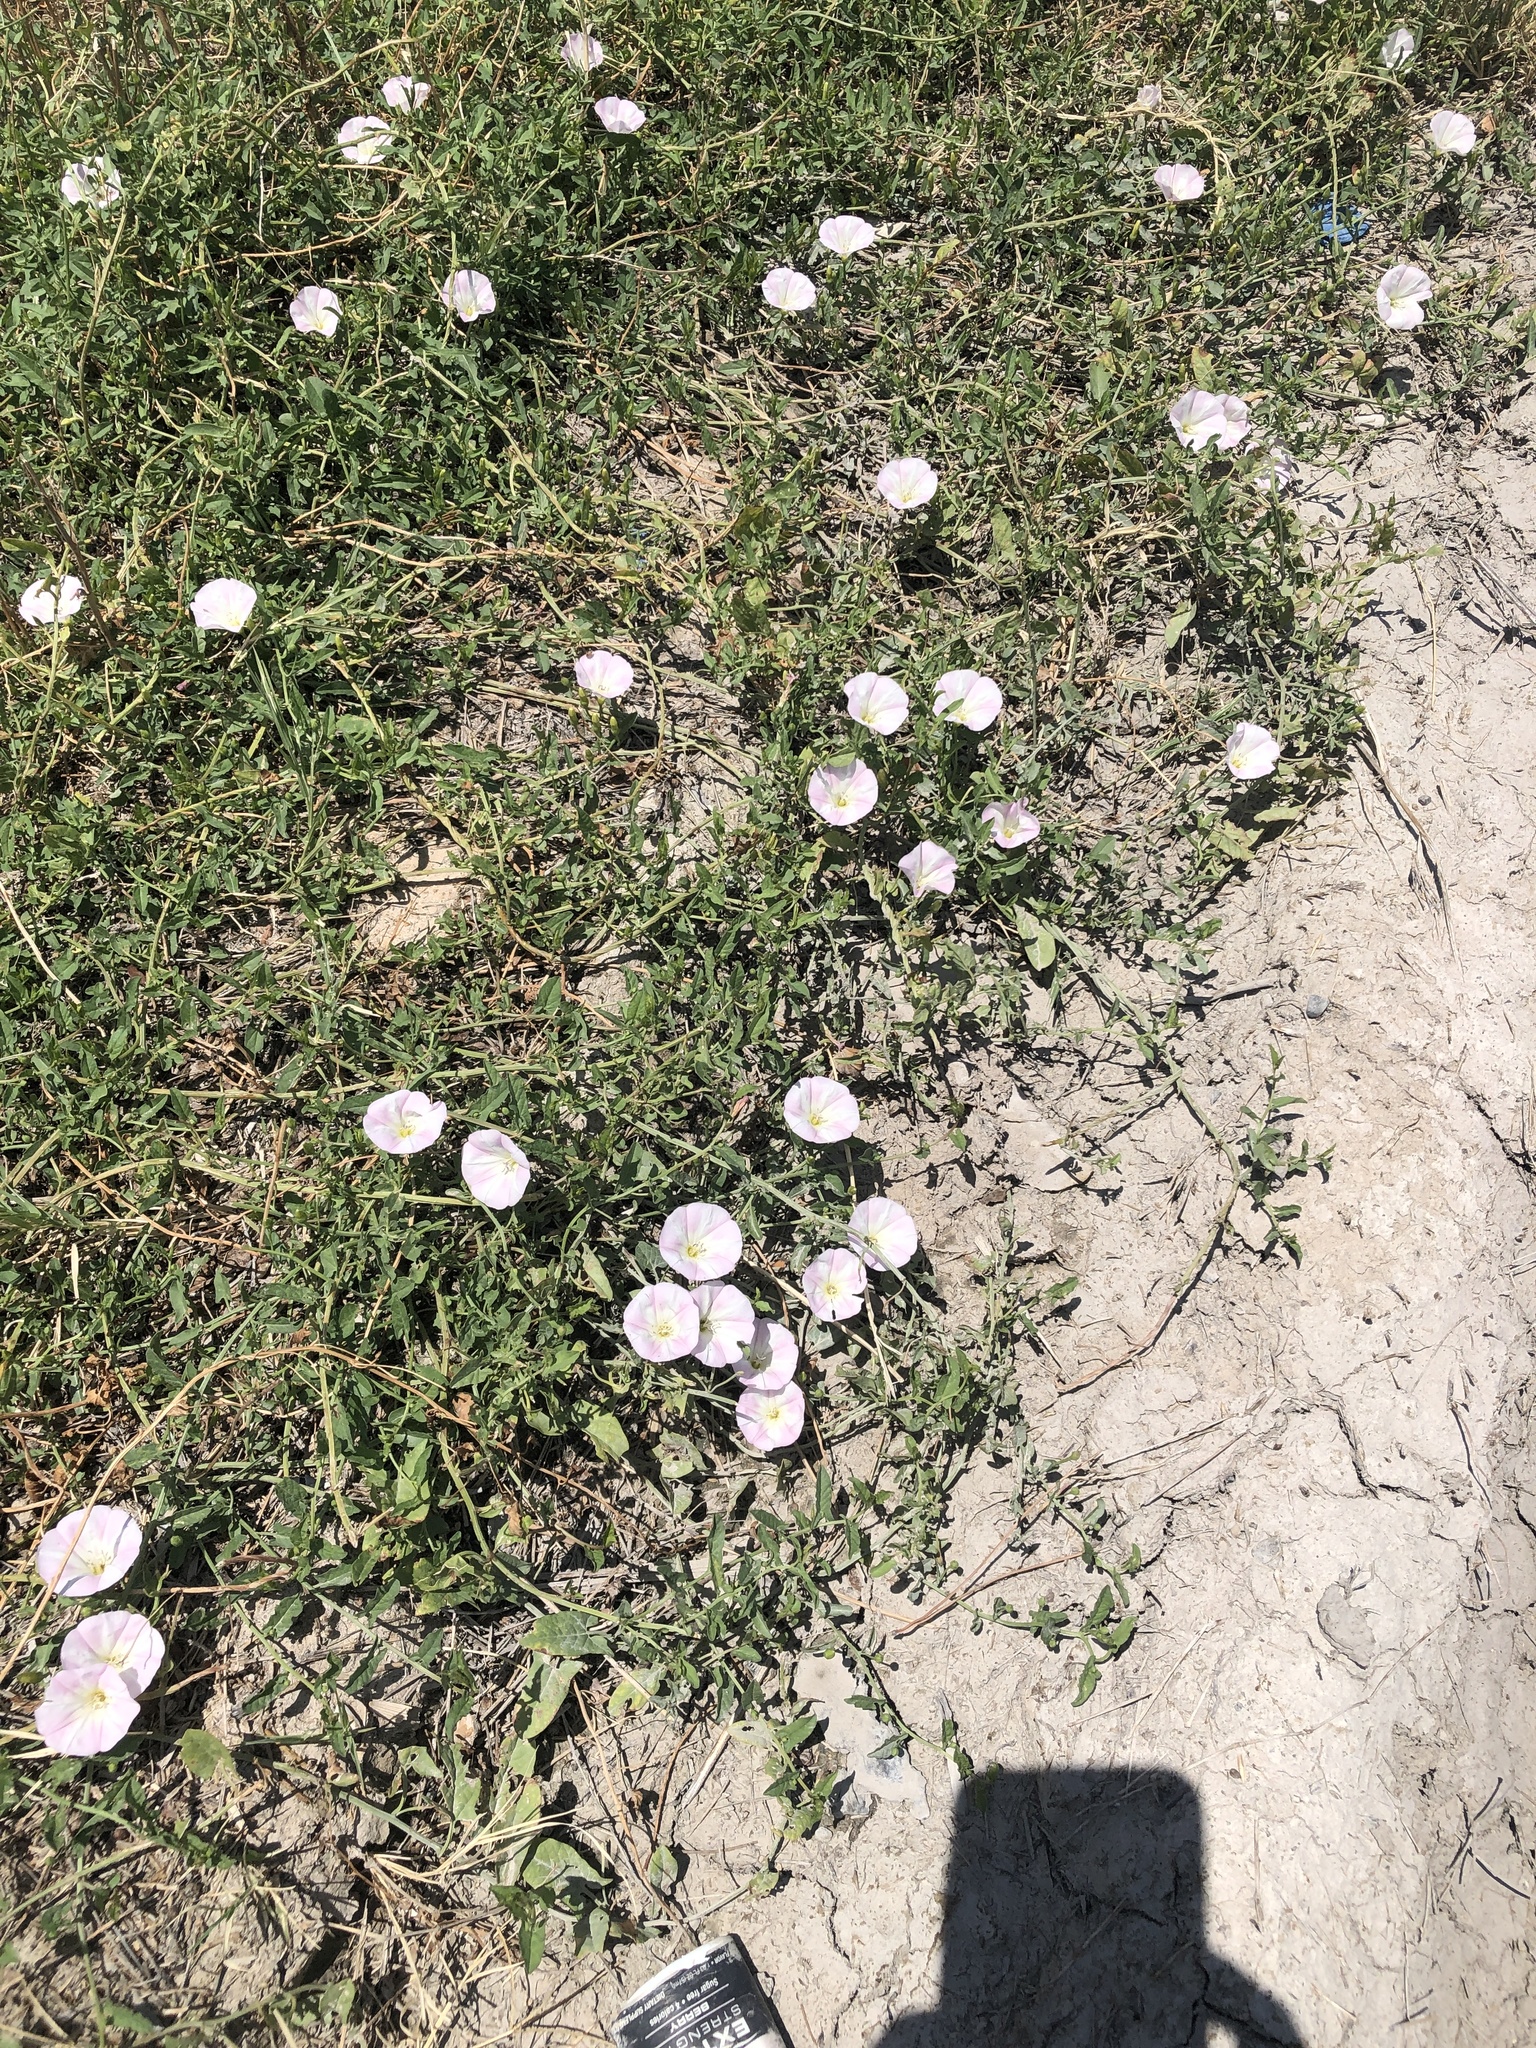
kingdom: Plantae
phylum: Tracheophyta
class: Magnoliopsida
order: Solanales
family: Convolvulaceae
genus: Convolvulus
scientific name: Convolvulus arvensis
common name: Field bindweed
